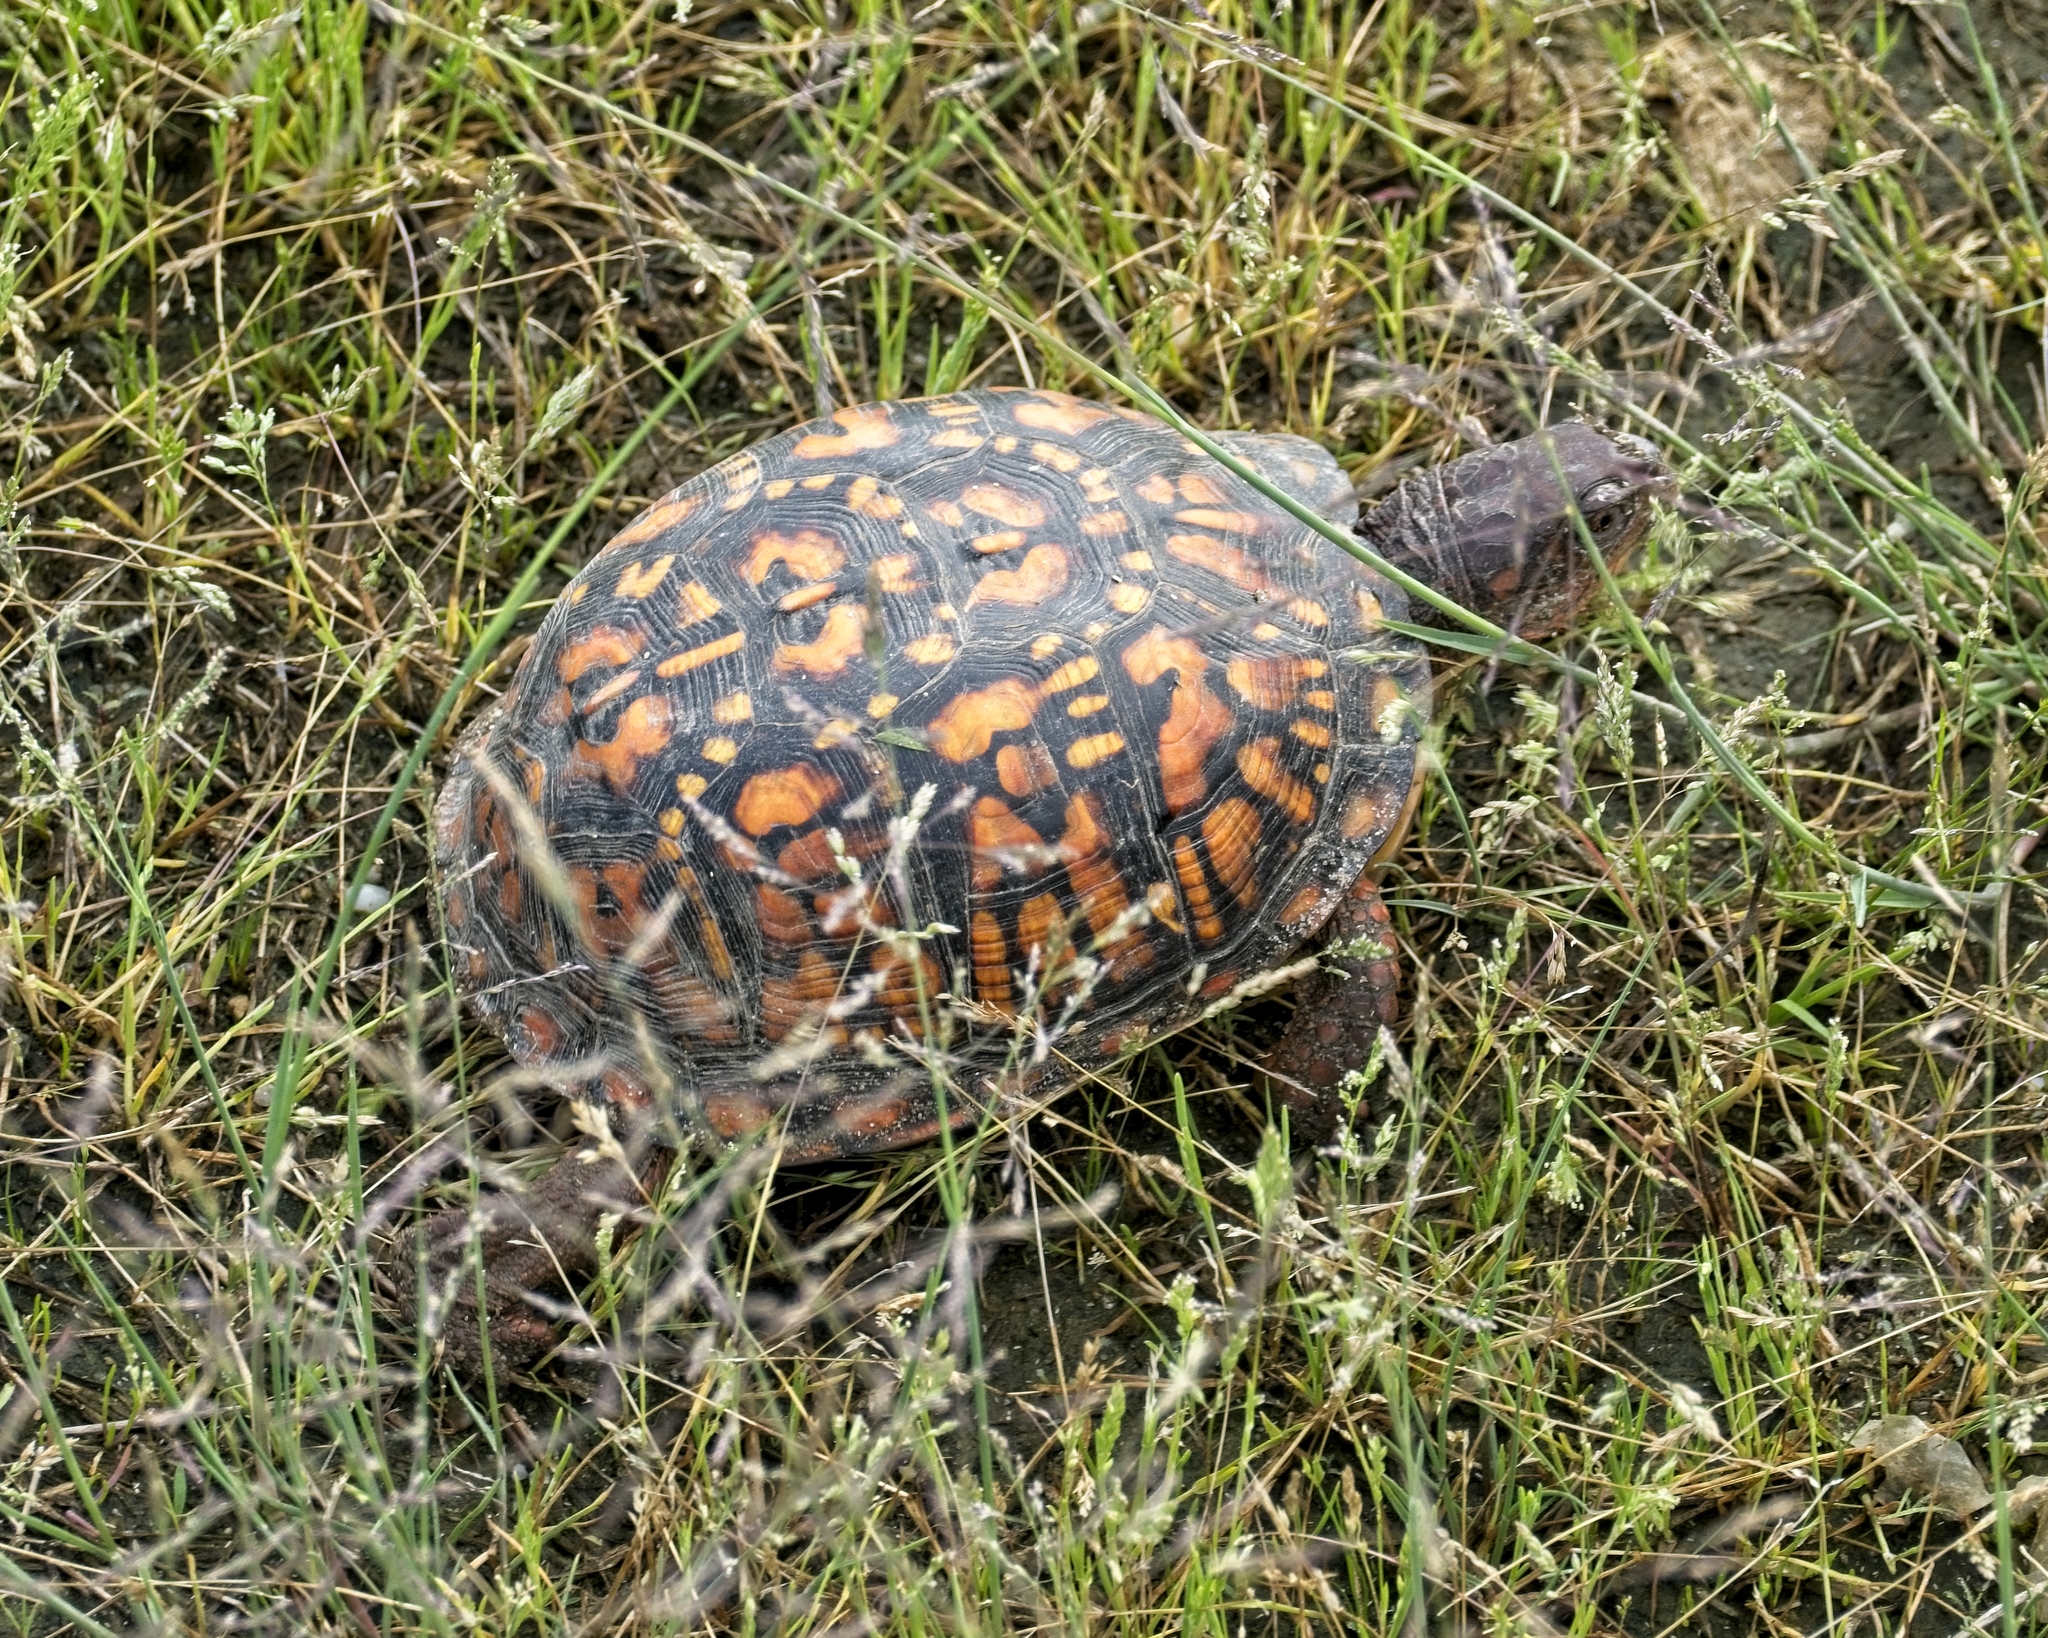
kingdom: Animalia
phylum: Chordata
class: Testudines
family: Emydidae
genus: Terrapene
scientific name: Terrapene carolina
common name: Common box turtle
